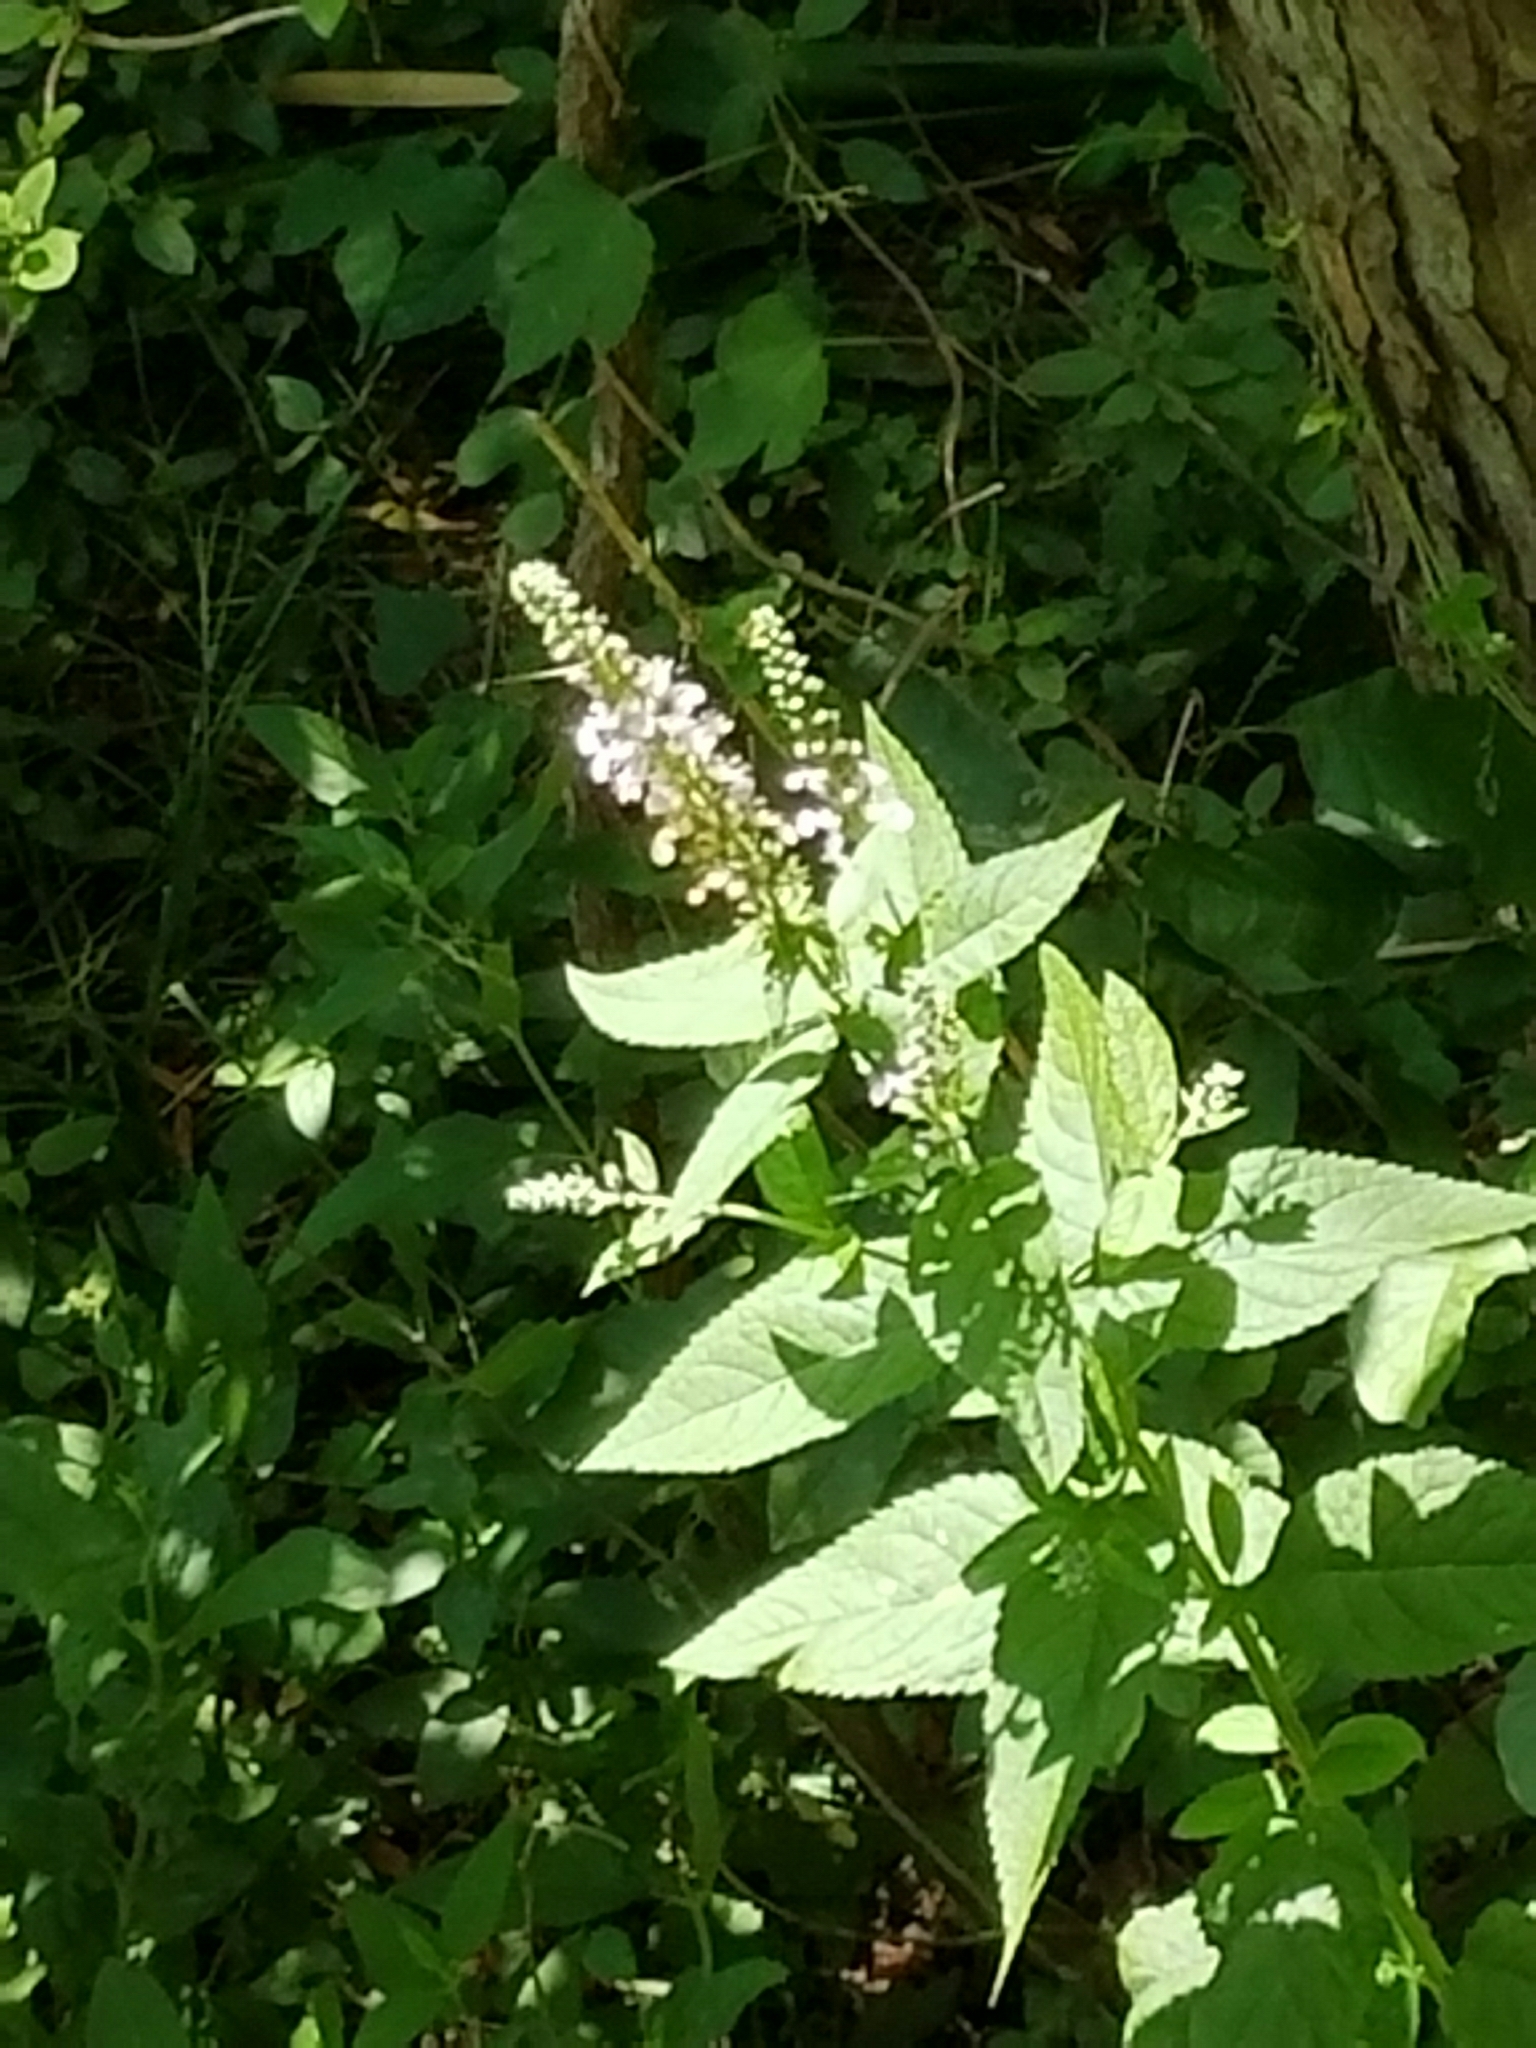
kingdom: Plantae
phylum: Tracheophyta
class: Magnoliopsida
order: Lamiales
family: Lamiaceae
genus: Teucrium
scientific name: Teucrium canadense
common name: American germander
